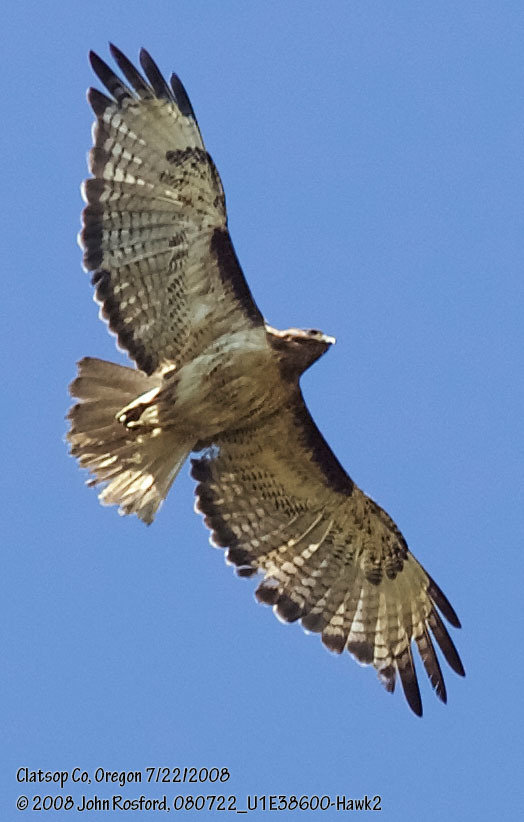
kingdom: Animalia
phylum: Chordata
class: Aves
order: Accipitriformes
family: Accipitridae
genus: Buteo
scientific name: Buteo jamaicensis
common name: Red-tailed hawk
